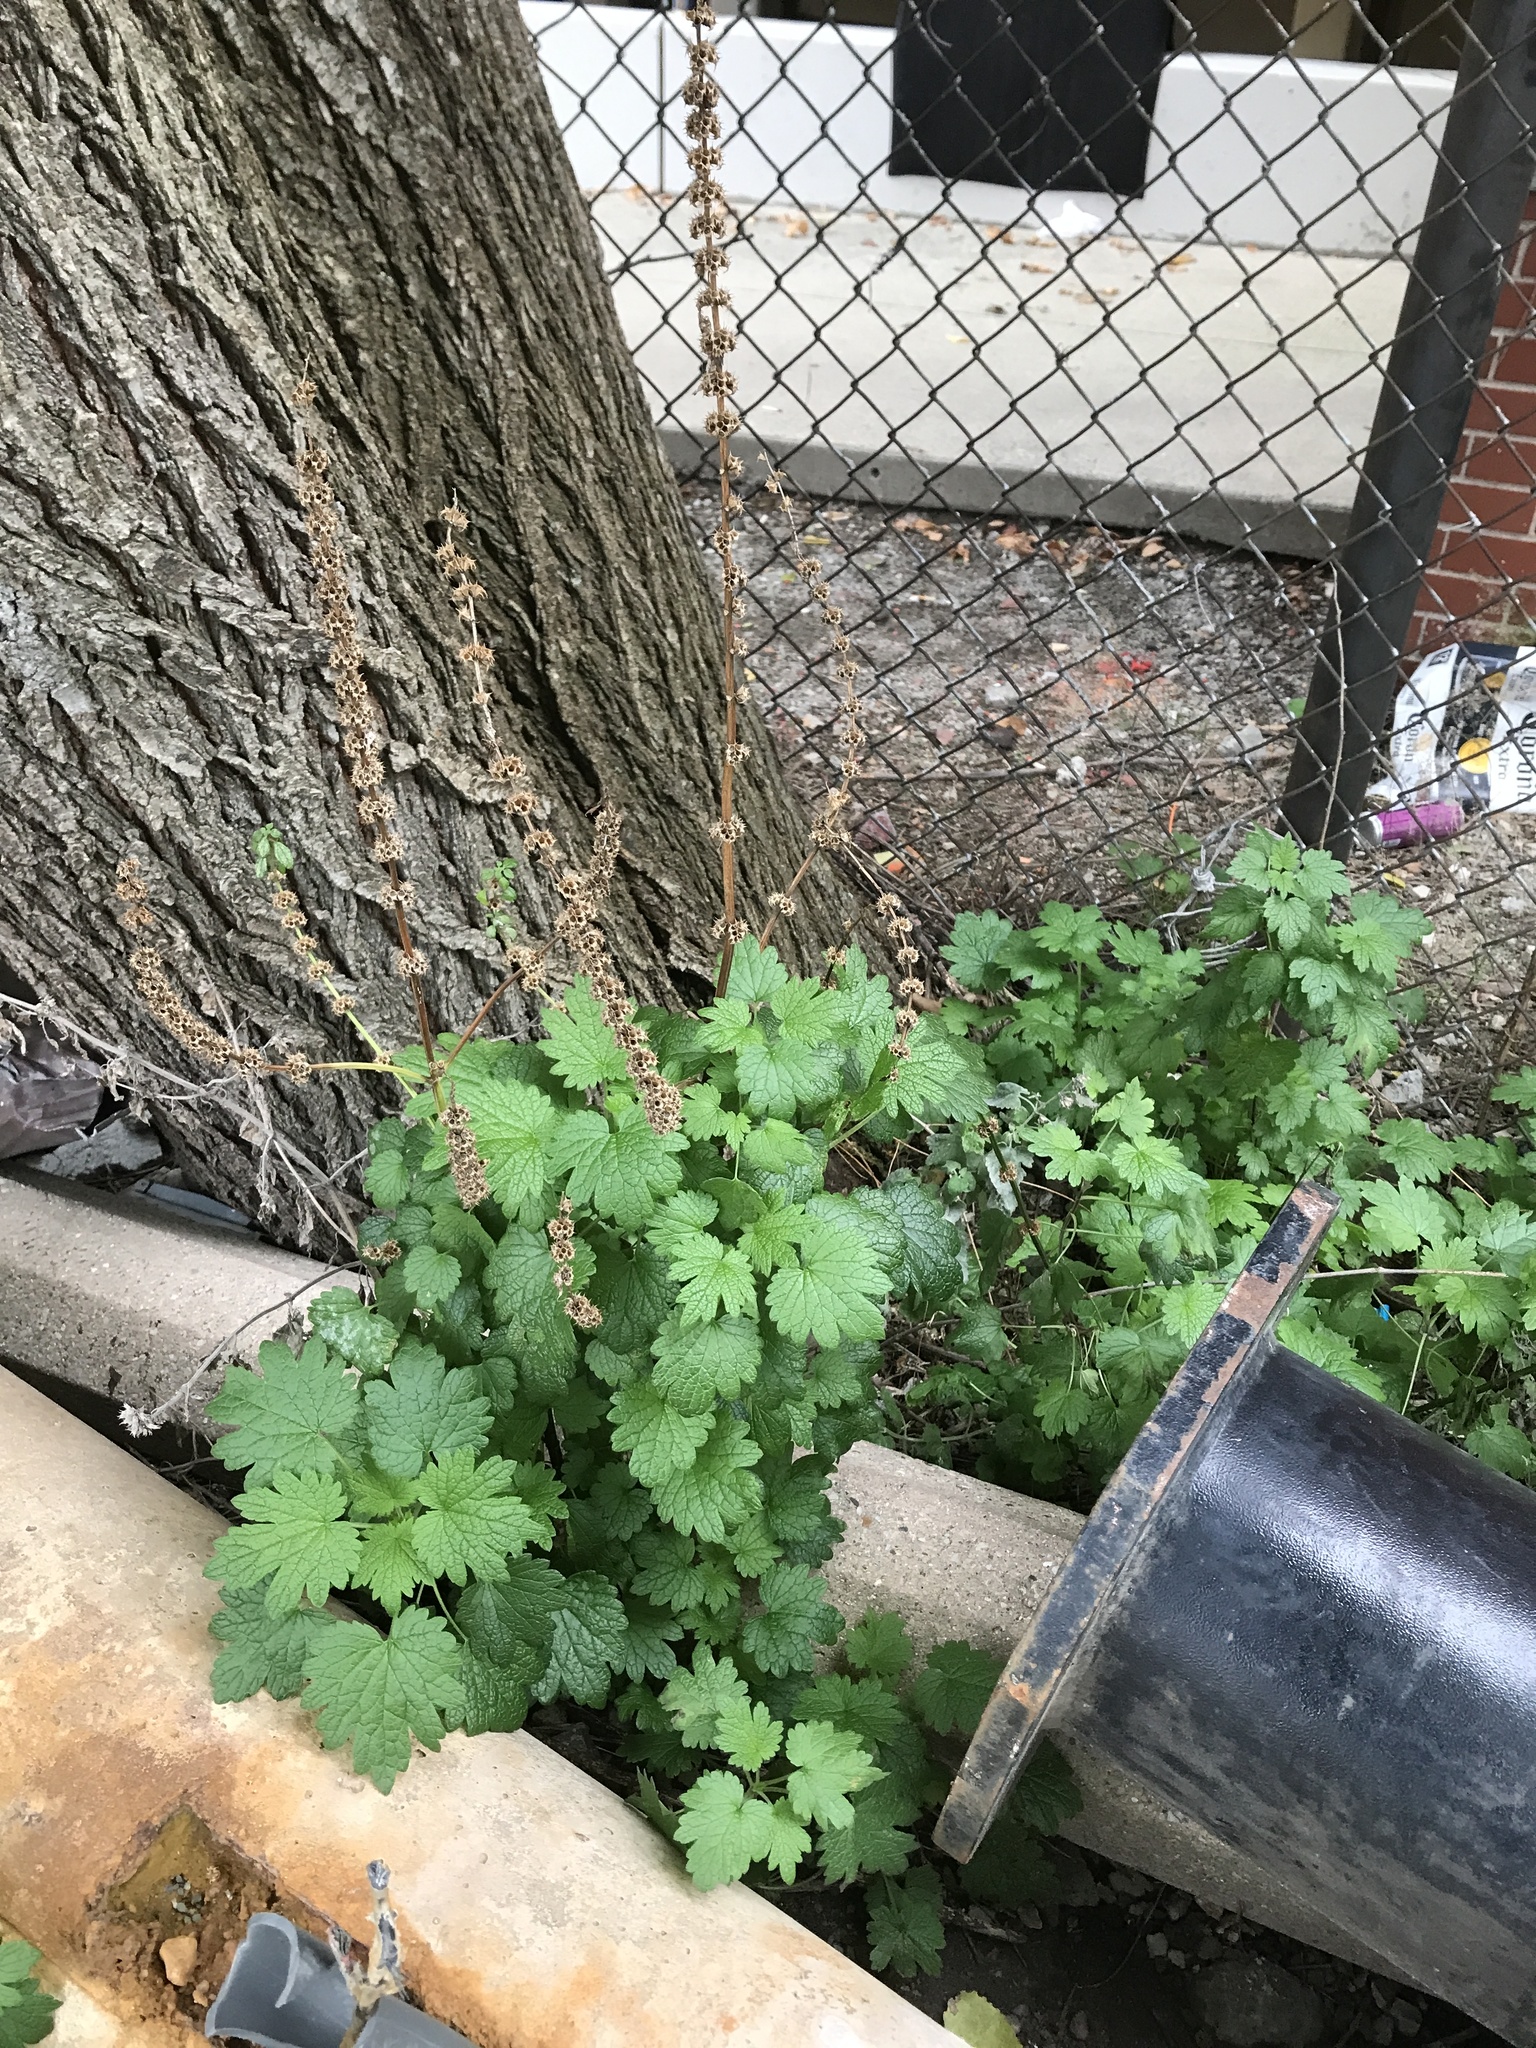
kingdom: Plantae
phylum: Tracheophyta
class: Magnoliopsida
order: Lamiales
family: Lamiaceae
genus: Leonurus
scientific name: Leonurus cardiaca
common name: Motherwort
